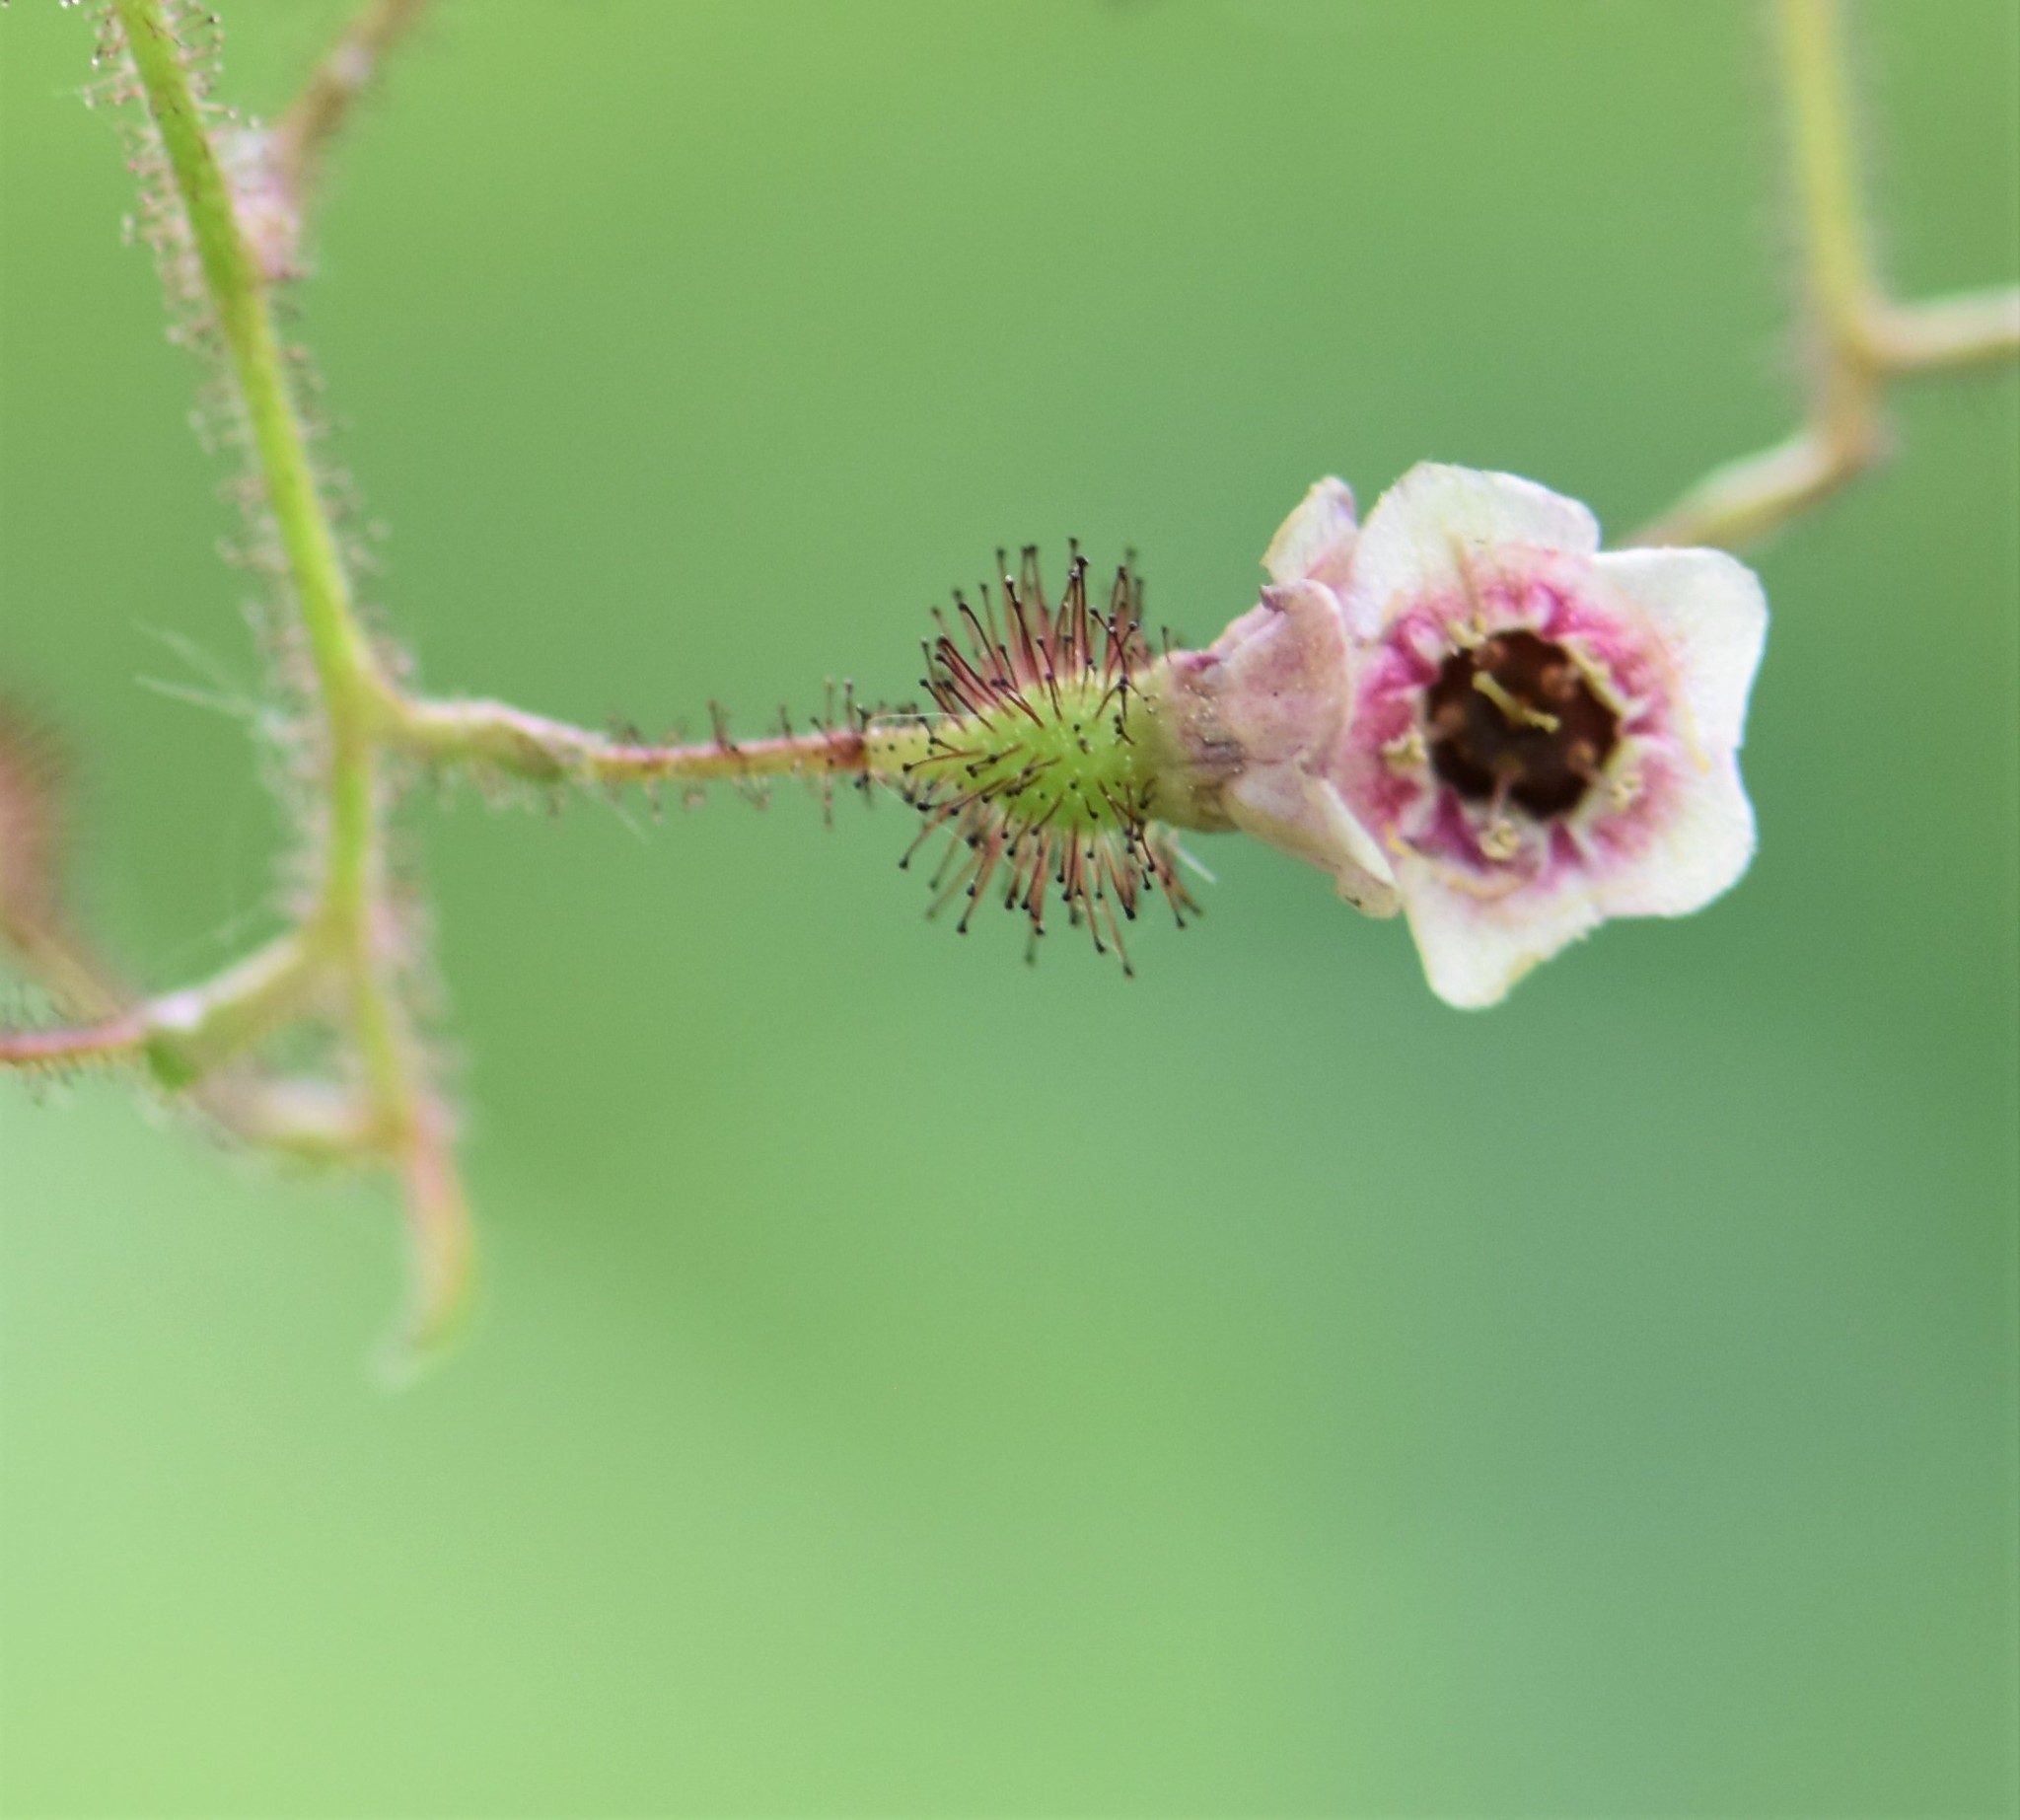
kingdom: Plantae
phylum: Tracheophyta
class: Magnoliopsida
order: Saxifragales
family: Grossulariaceae
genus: Ribes
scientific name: Ribes lacustre
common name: Black gooseberry
